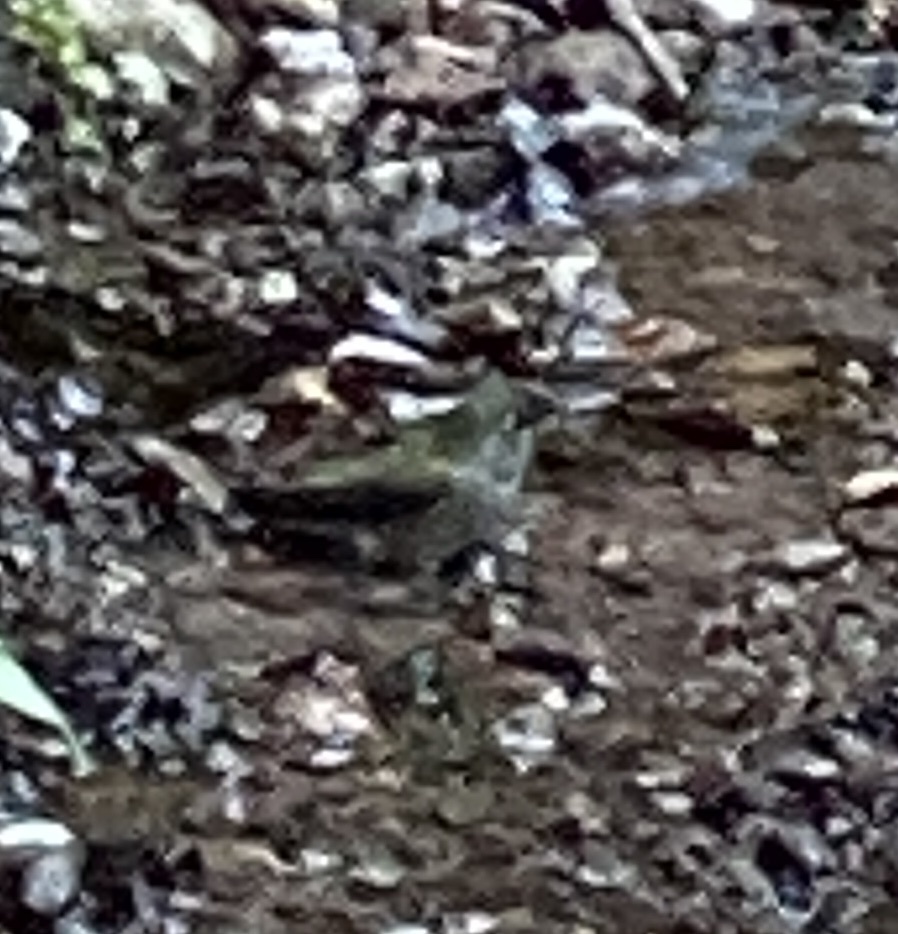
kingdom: Animalia
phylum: Chordata
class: Aves
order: Apodiformes
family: Trochilidae
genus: Calypte
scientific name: Calypte anna
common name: Anna's hummingbird
